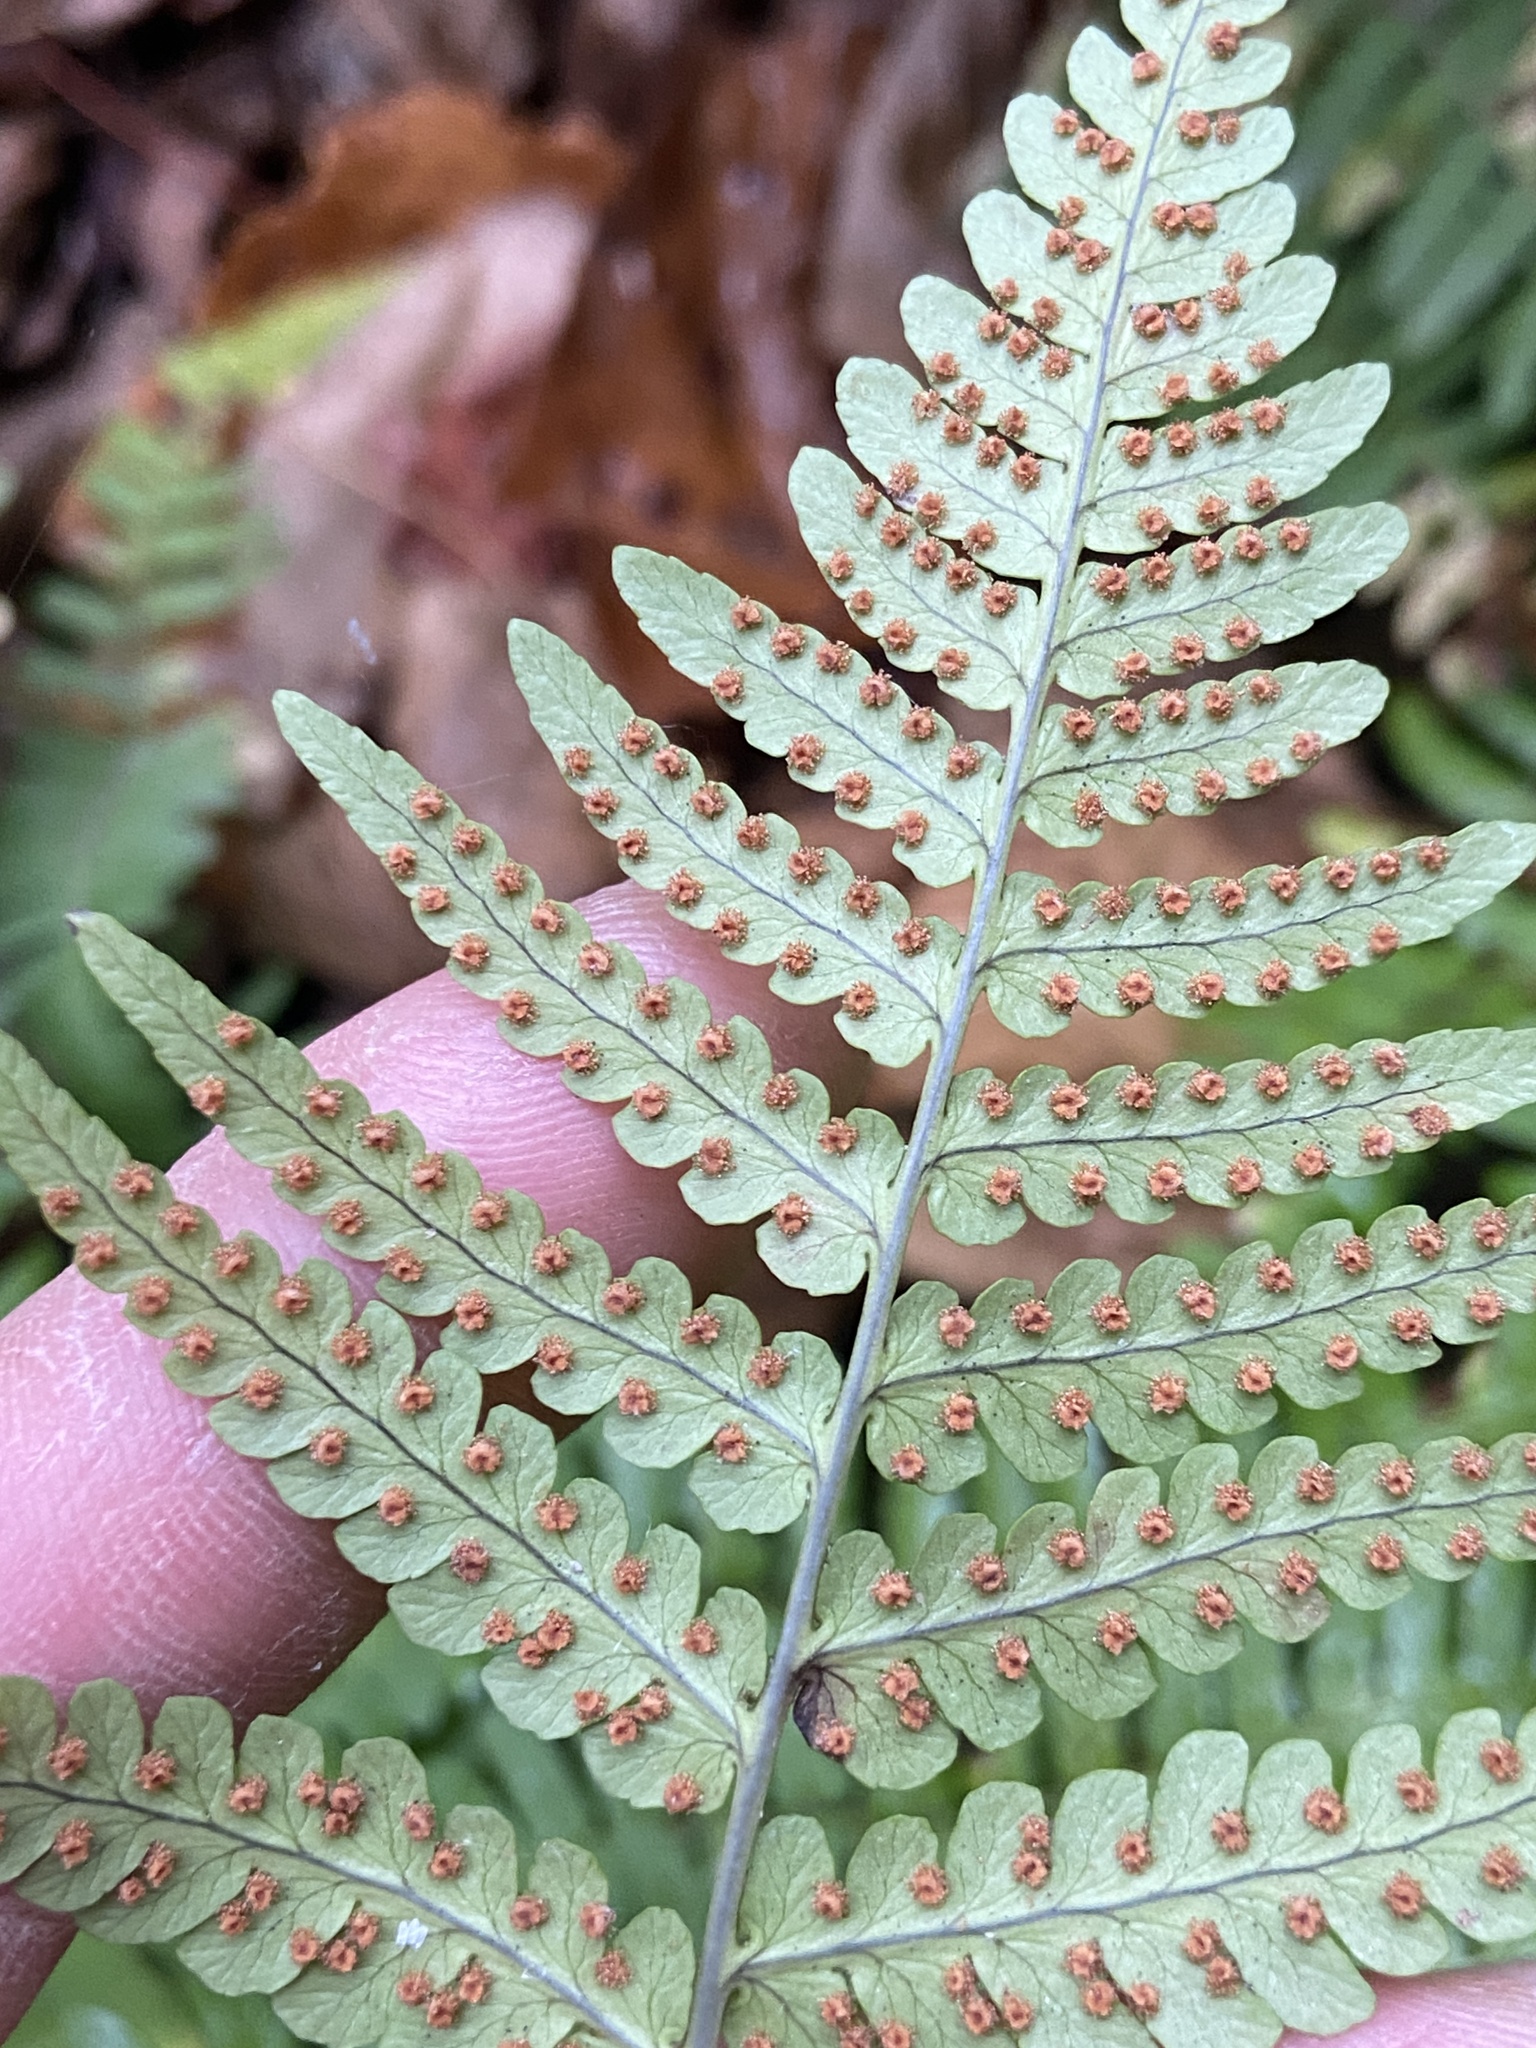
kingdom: Plantae
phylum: Tracheophyta
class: Polypodiopsida
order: Polypodiales
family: Dryopteridaceae
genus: Dryopteris
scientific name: Dryopteris marginalis
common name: Marginal wood fern
